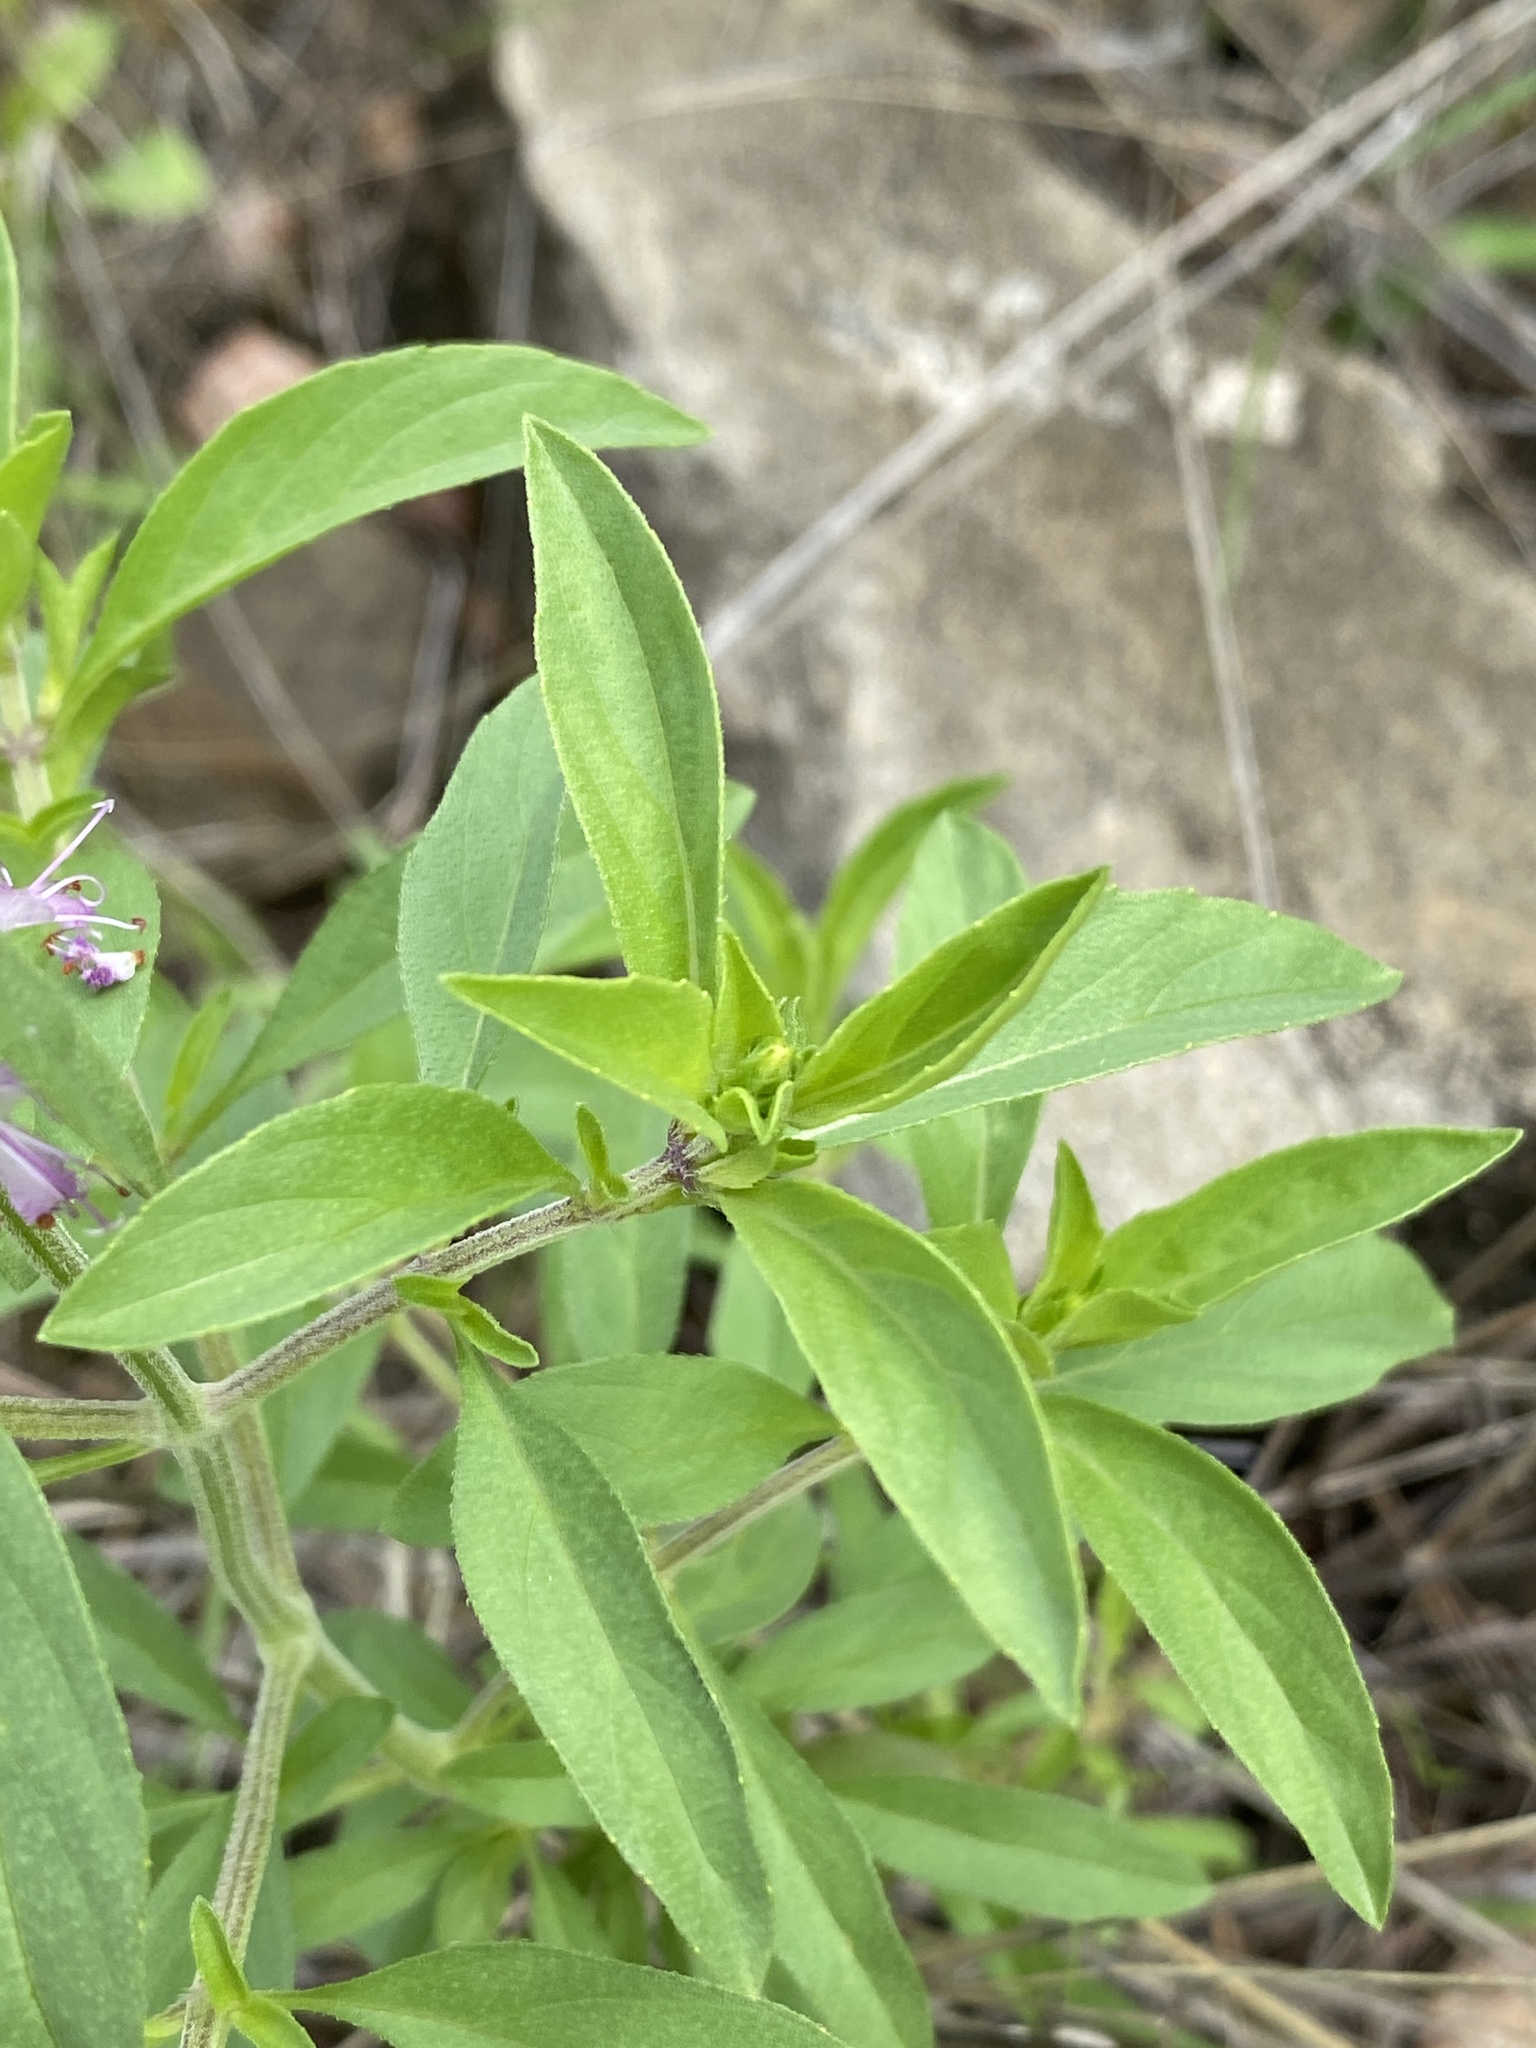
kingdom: Plantae
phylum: Tracheophyta
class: Magnoliopsida
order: Lamiales
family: Lamiaceae
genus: Ocimum
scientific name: Ocimum americanum
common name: American basil
